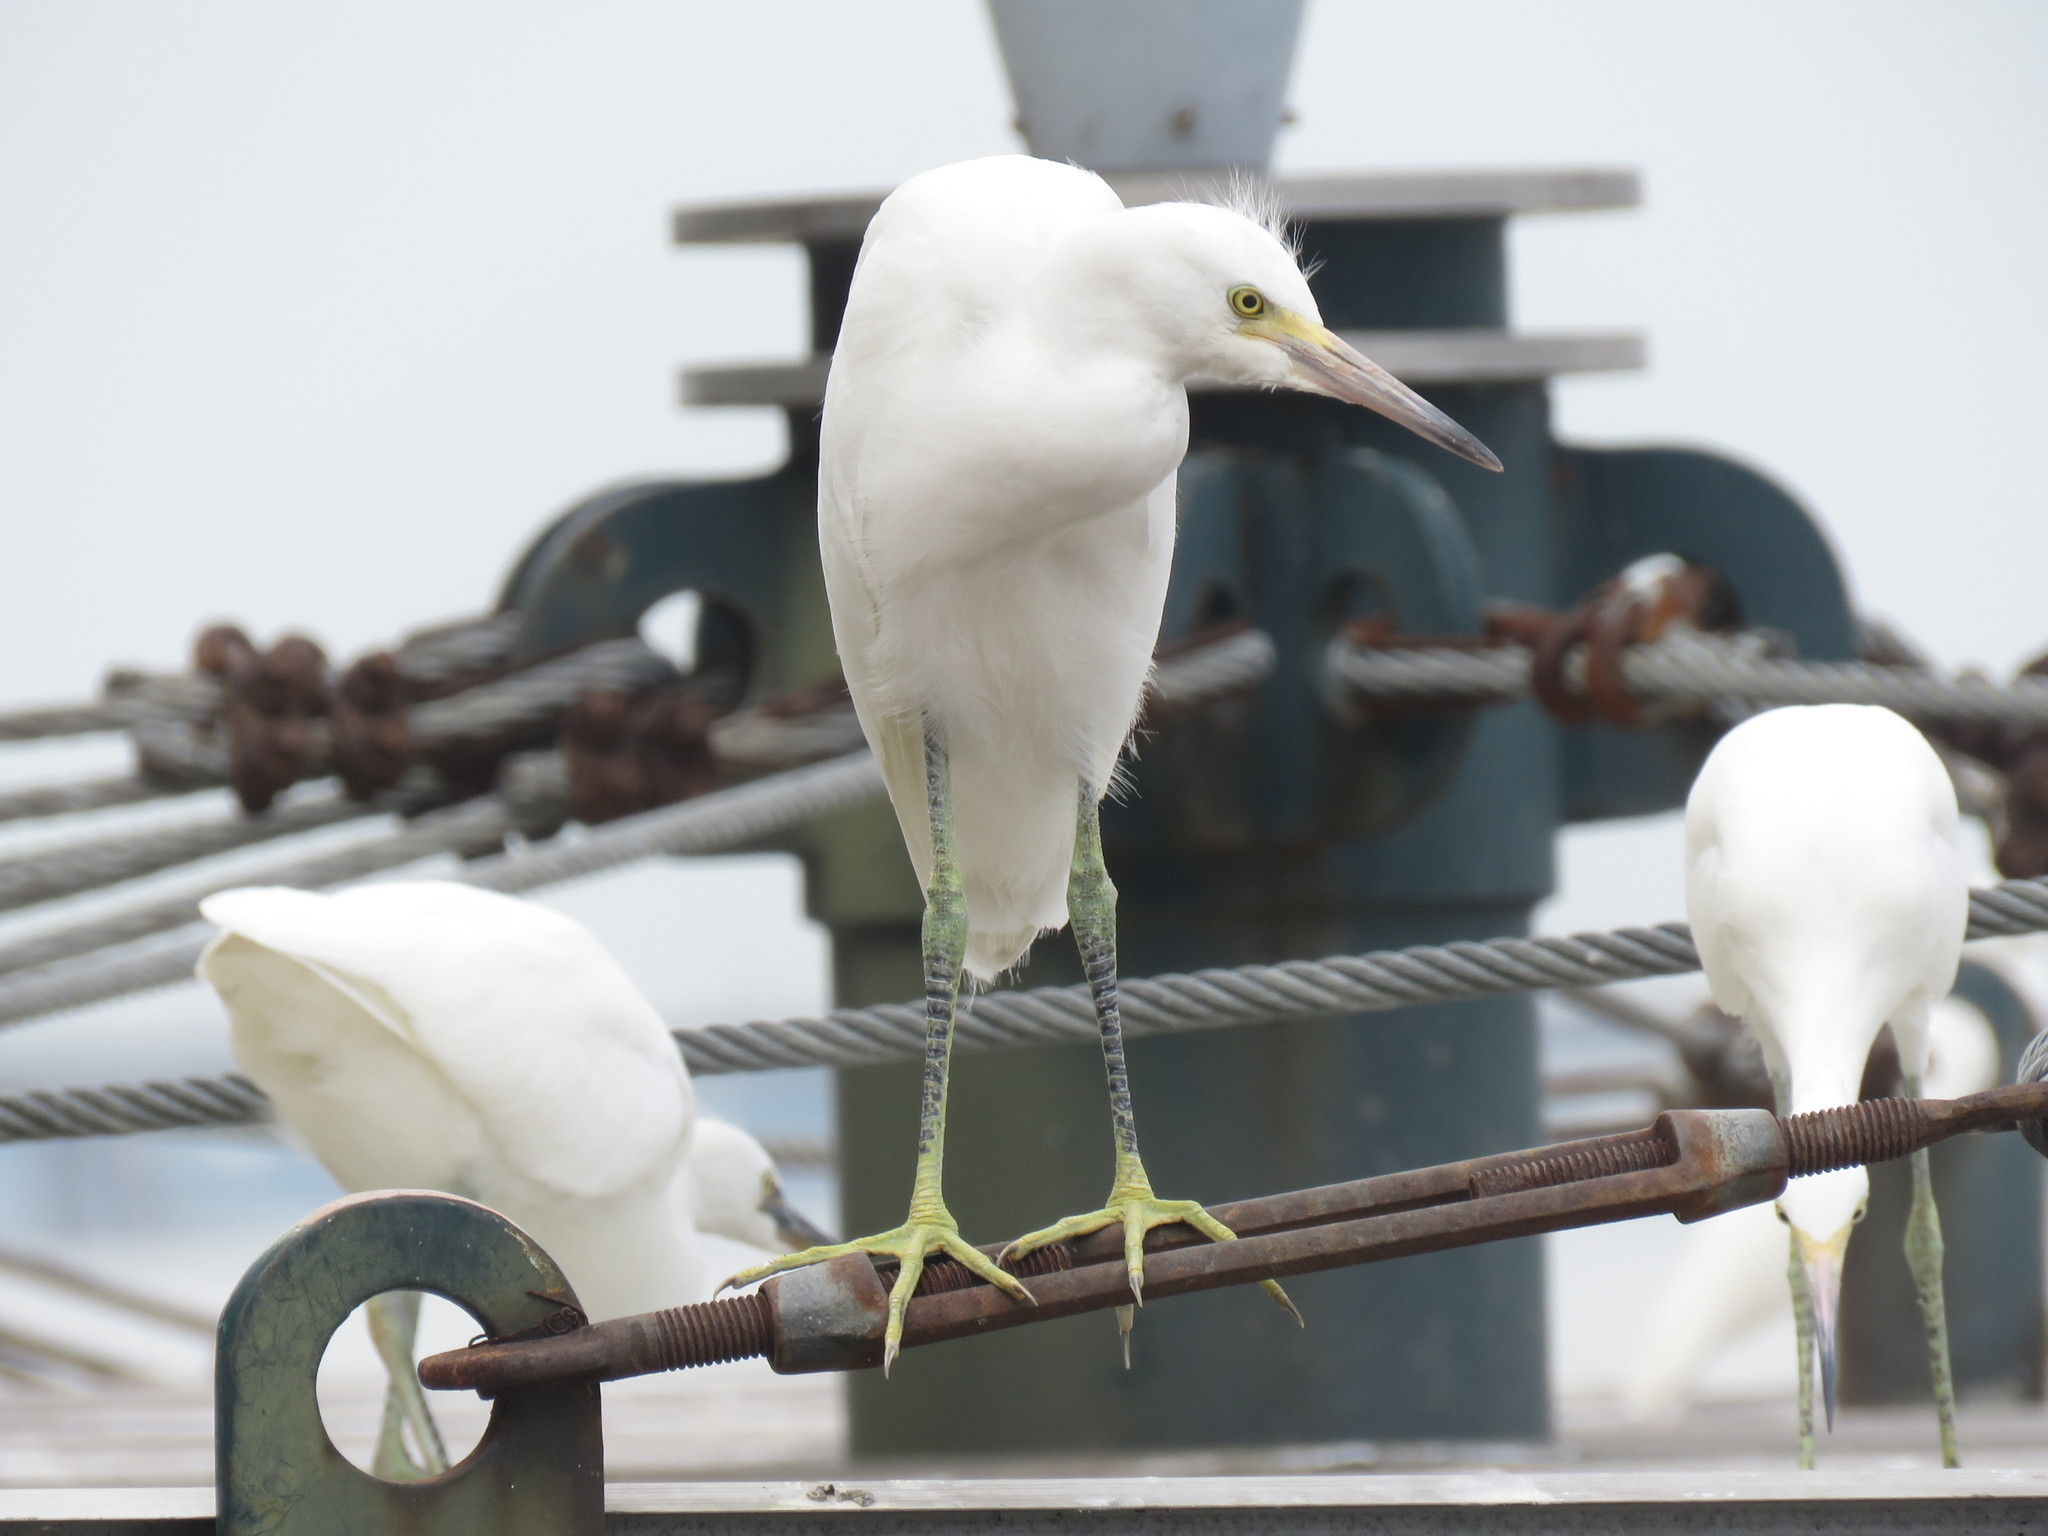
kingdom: Animalia
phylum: Chordata
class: Aves
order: Pelecaniformes
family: Ardeidae
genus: Egretta
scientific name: Egretta thula
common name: Snowy egret
